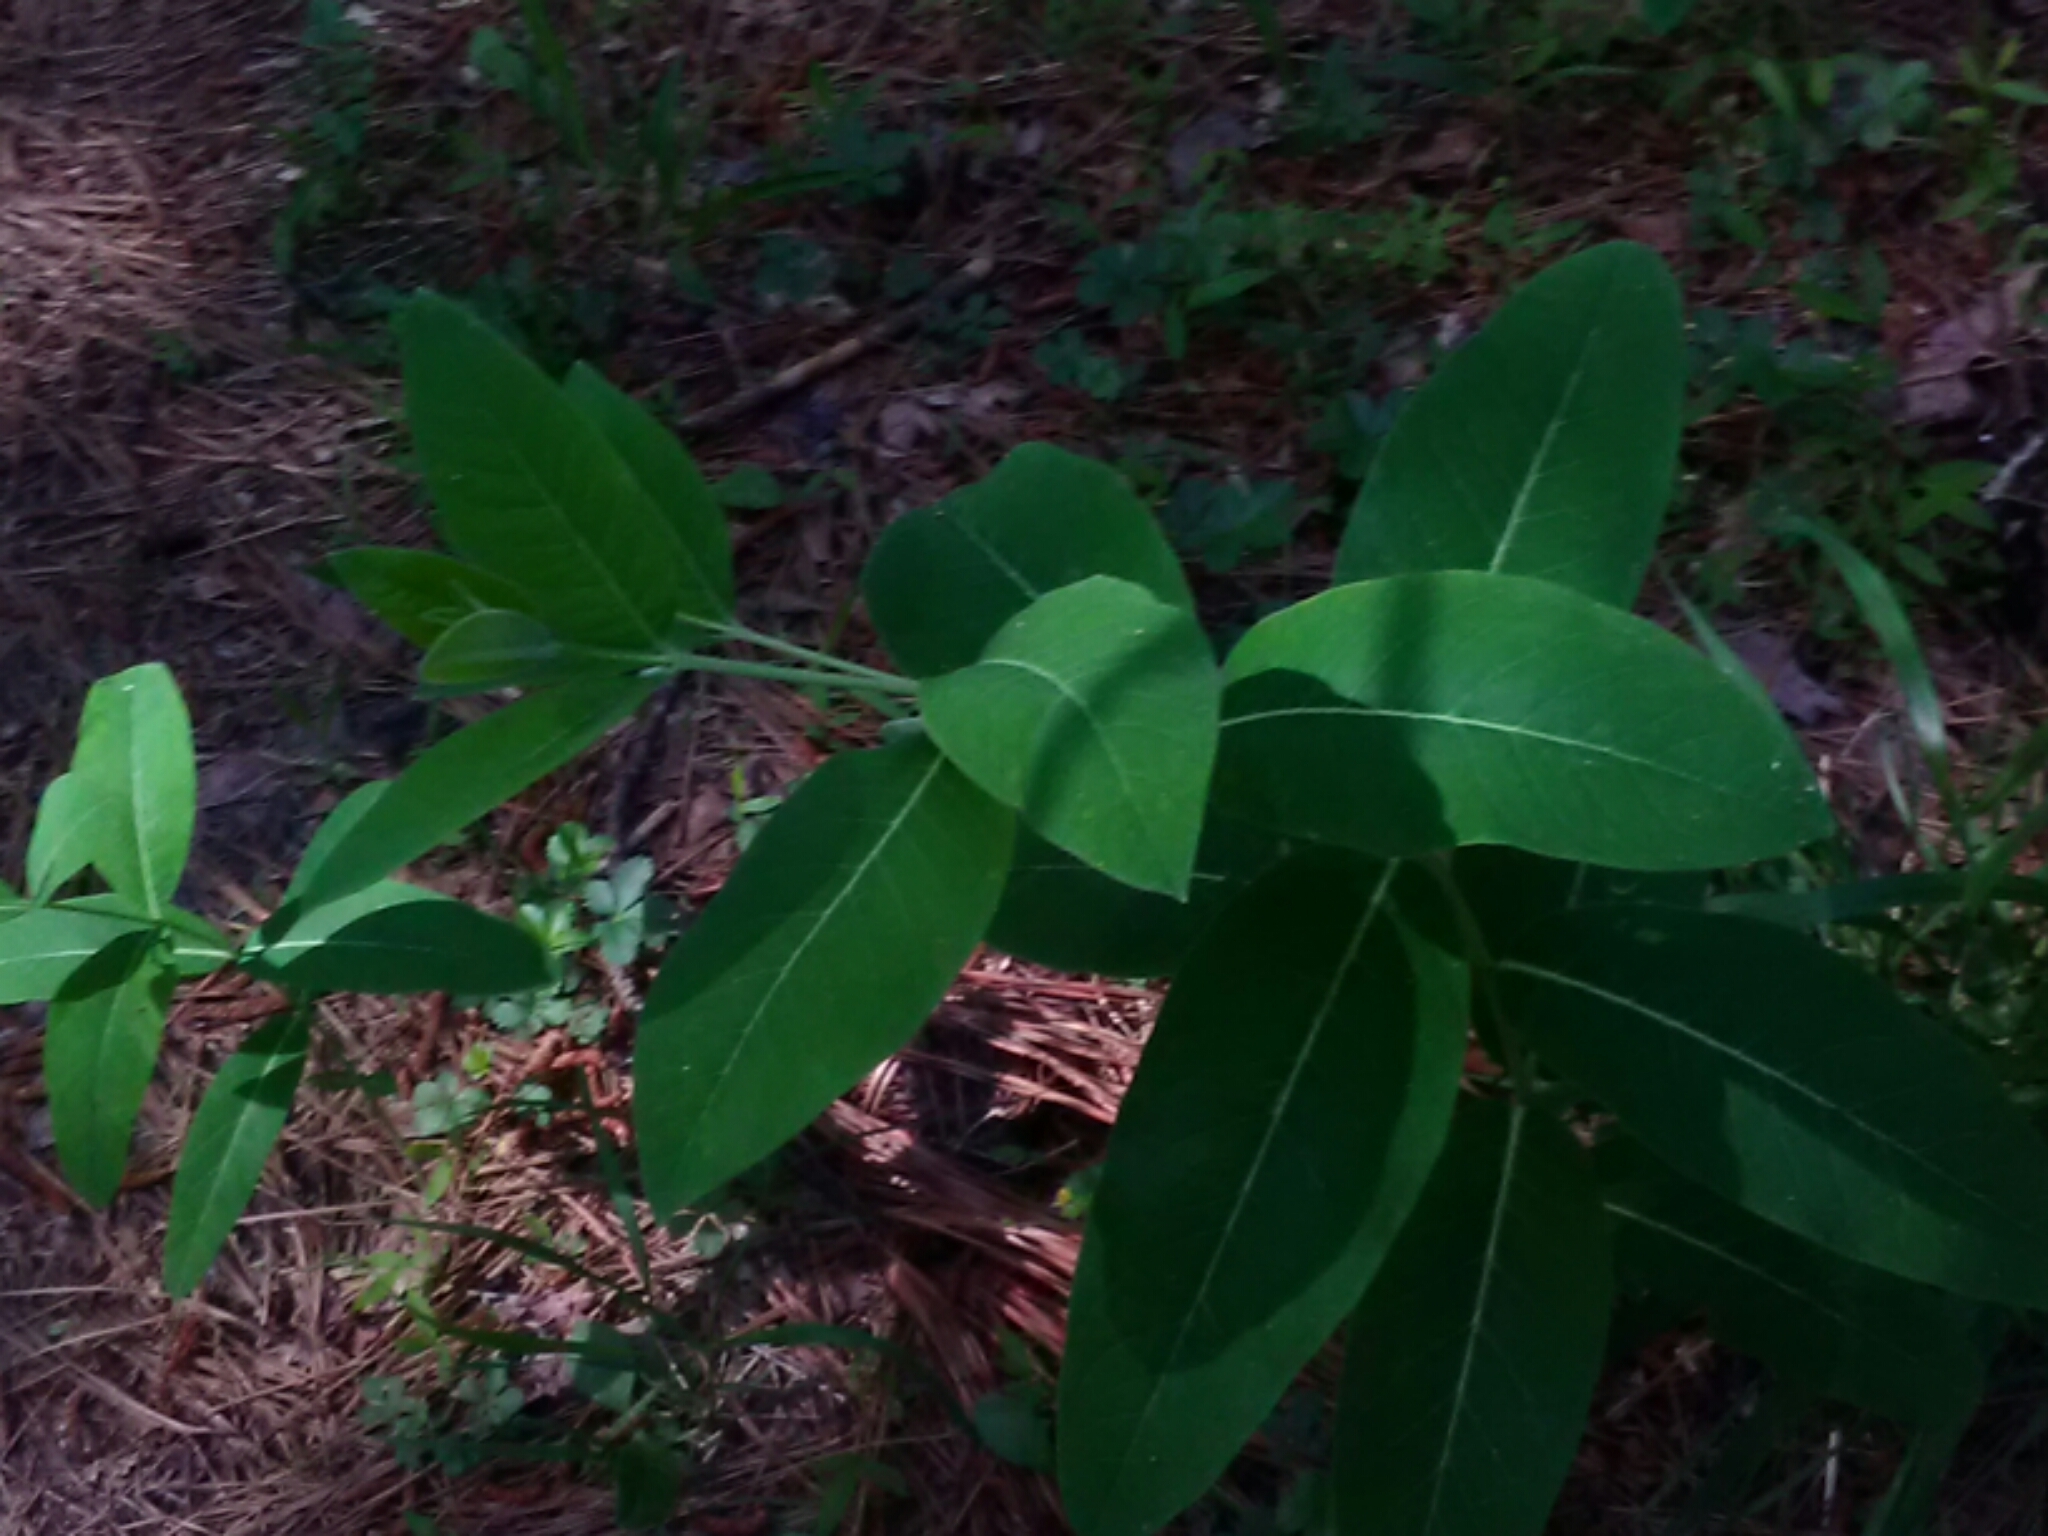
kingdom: Plantae
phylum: Tracheophyta
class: Magnoliopsida
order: Gentianales
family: Apocynaceae
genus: Apocynum
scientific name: Apocynum cannabinum
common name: Hemp dogbane
